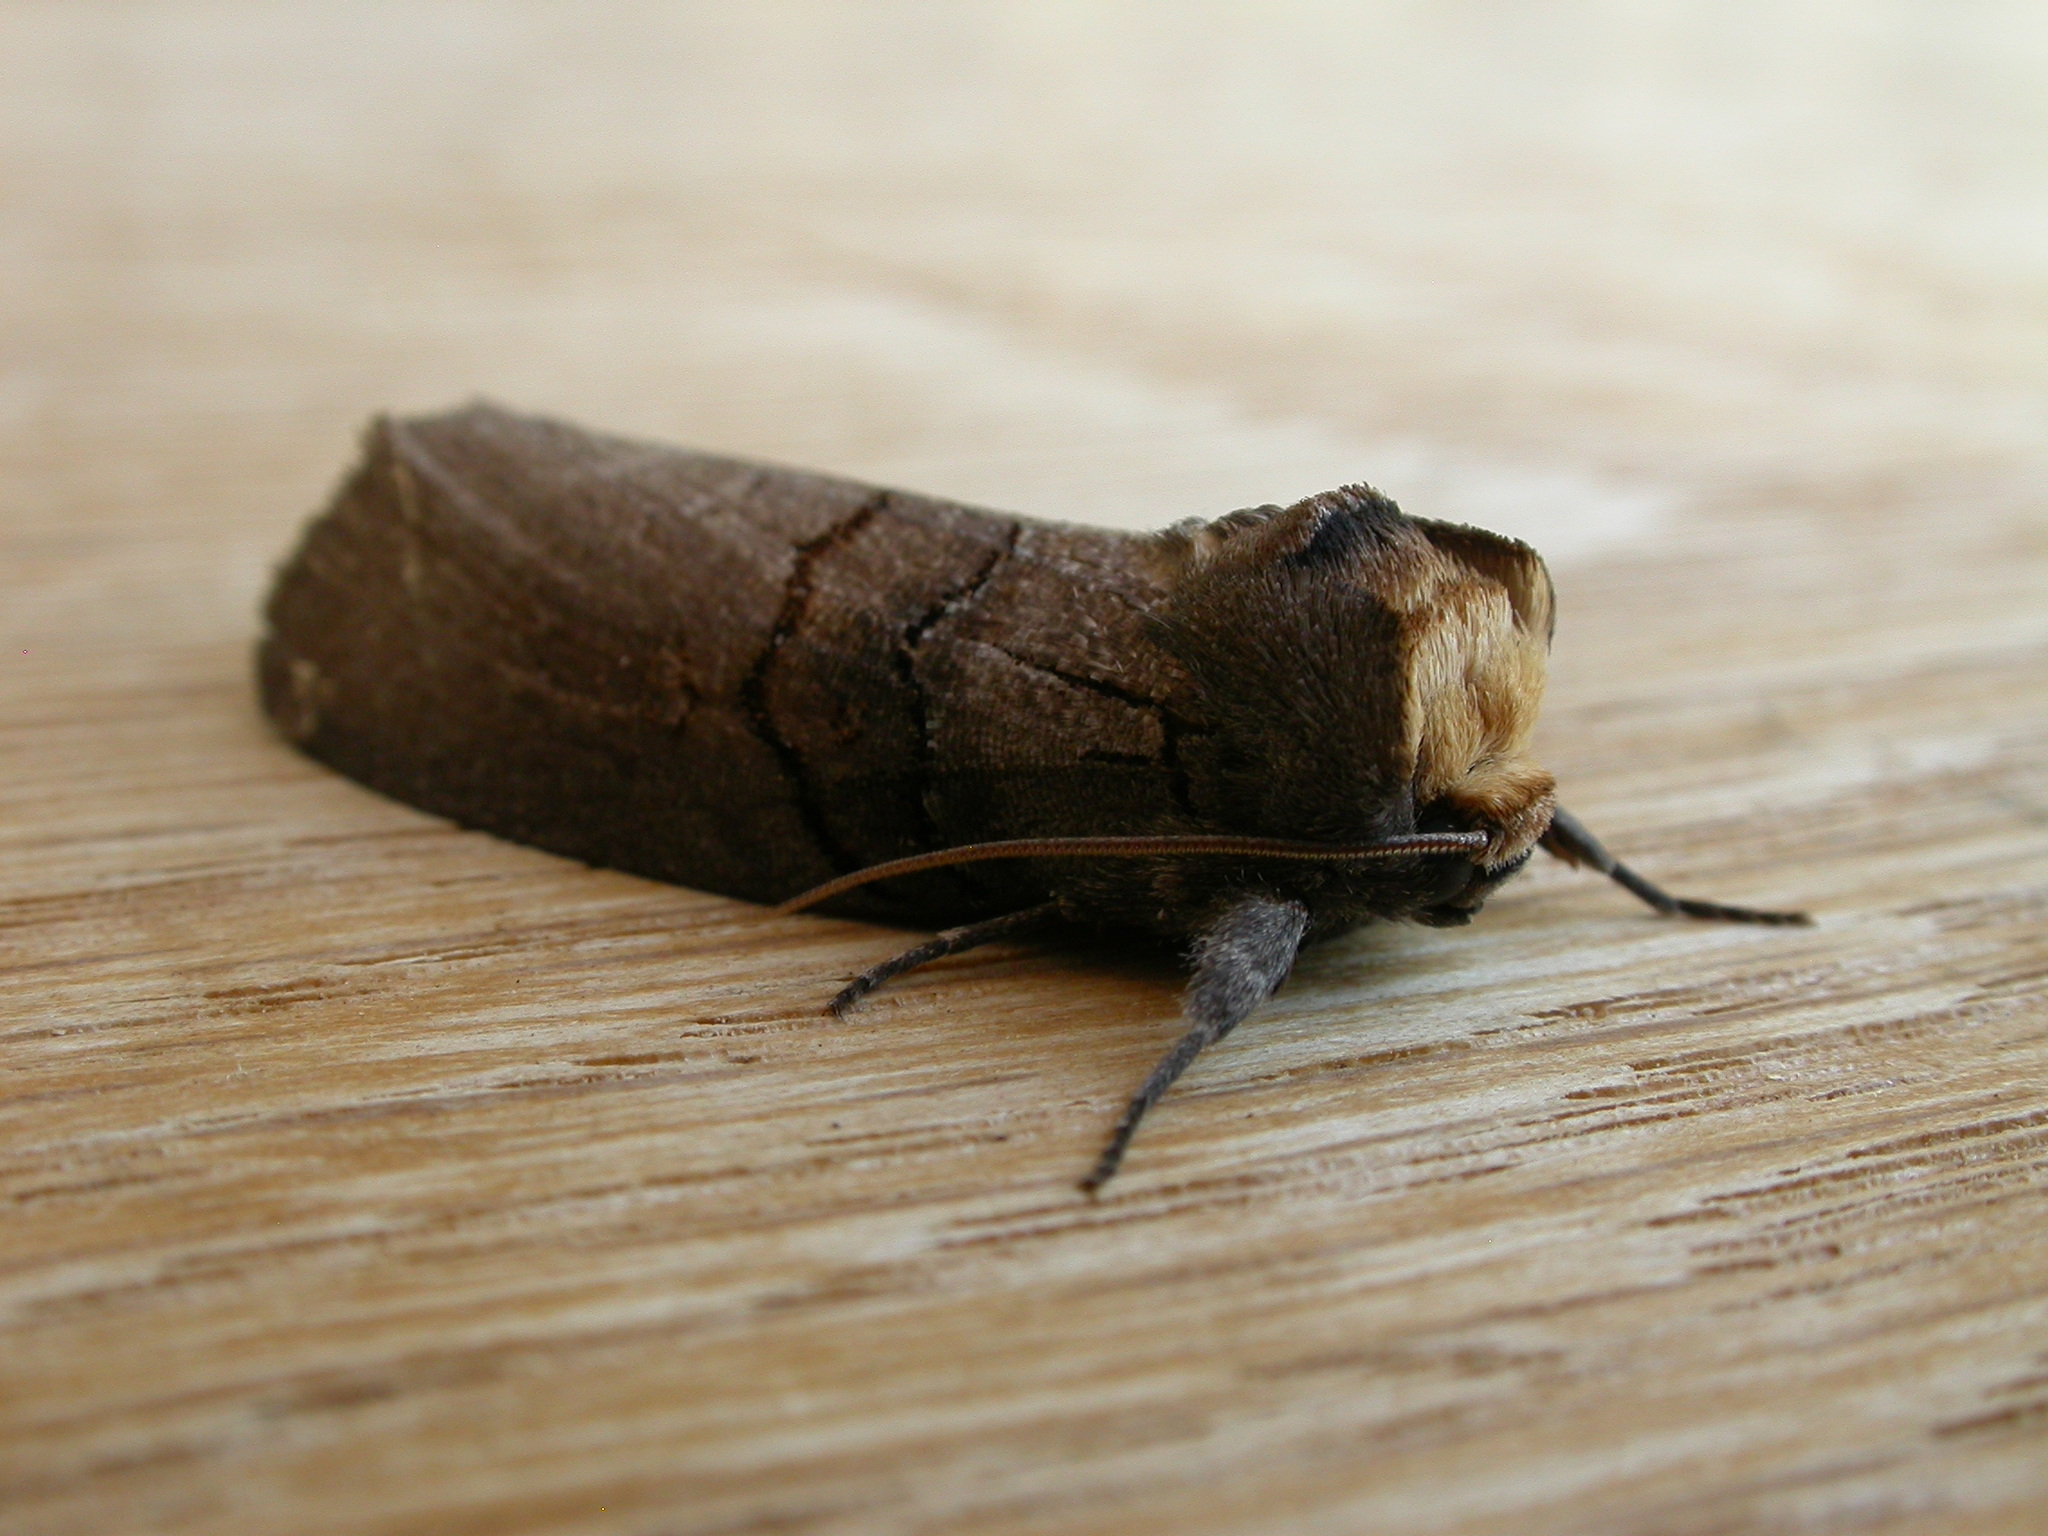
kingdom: Animalia
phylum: Arthropoda
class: Insecta
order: Lepidoptera
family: Oenosandridae
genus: Discophlebia
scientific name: Discophlebia lucasii
